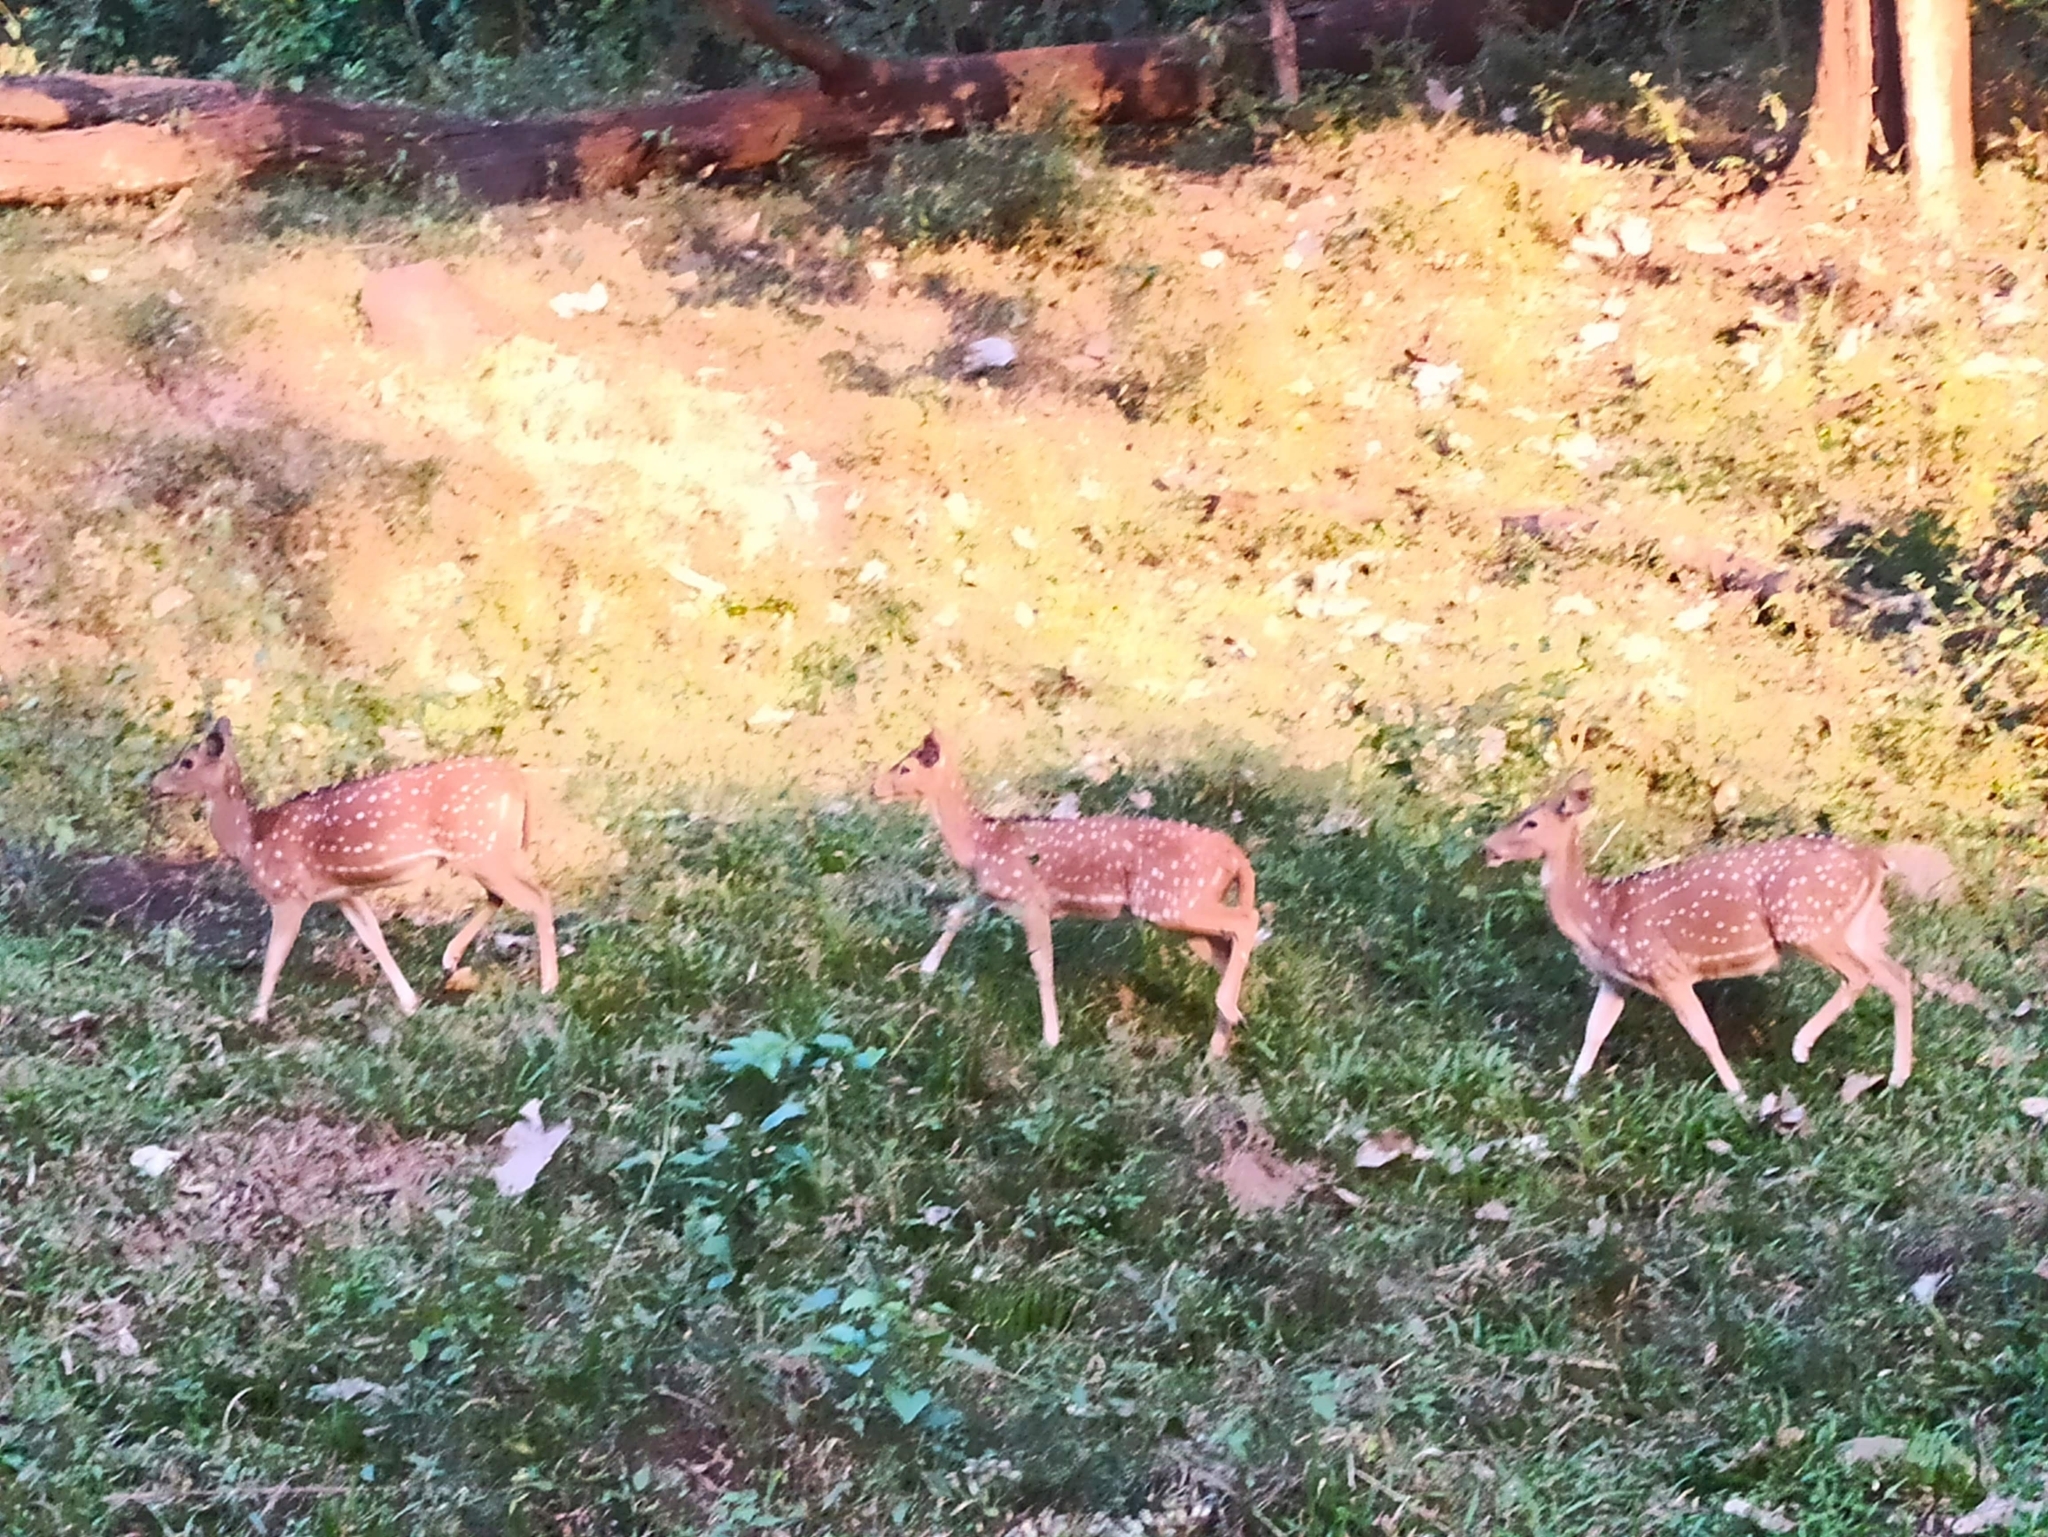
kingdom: Animalia
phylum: Chordata
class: Mammalia
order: Artiodactyla
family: Cervidae
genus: Axis
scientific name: Axis axis
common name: Chital
